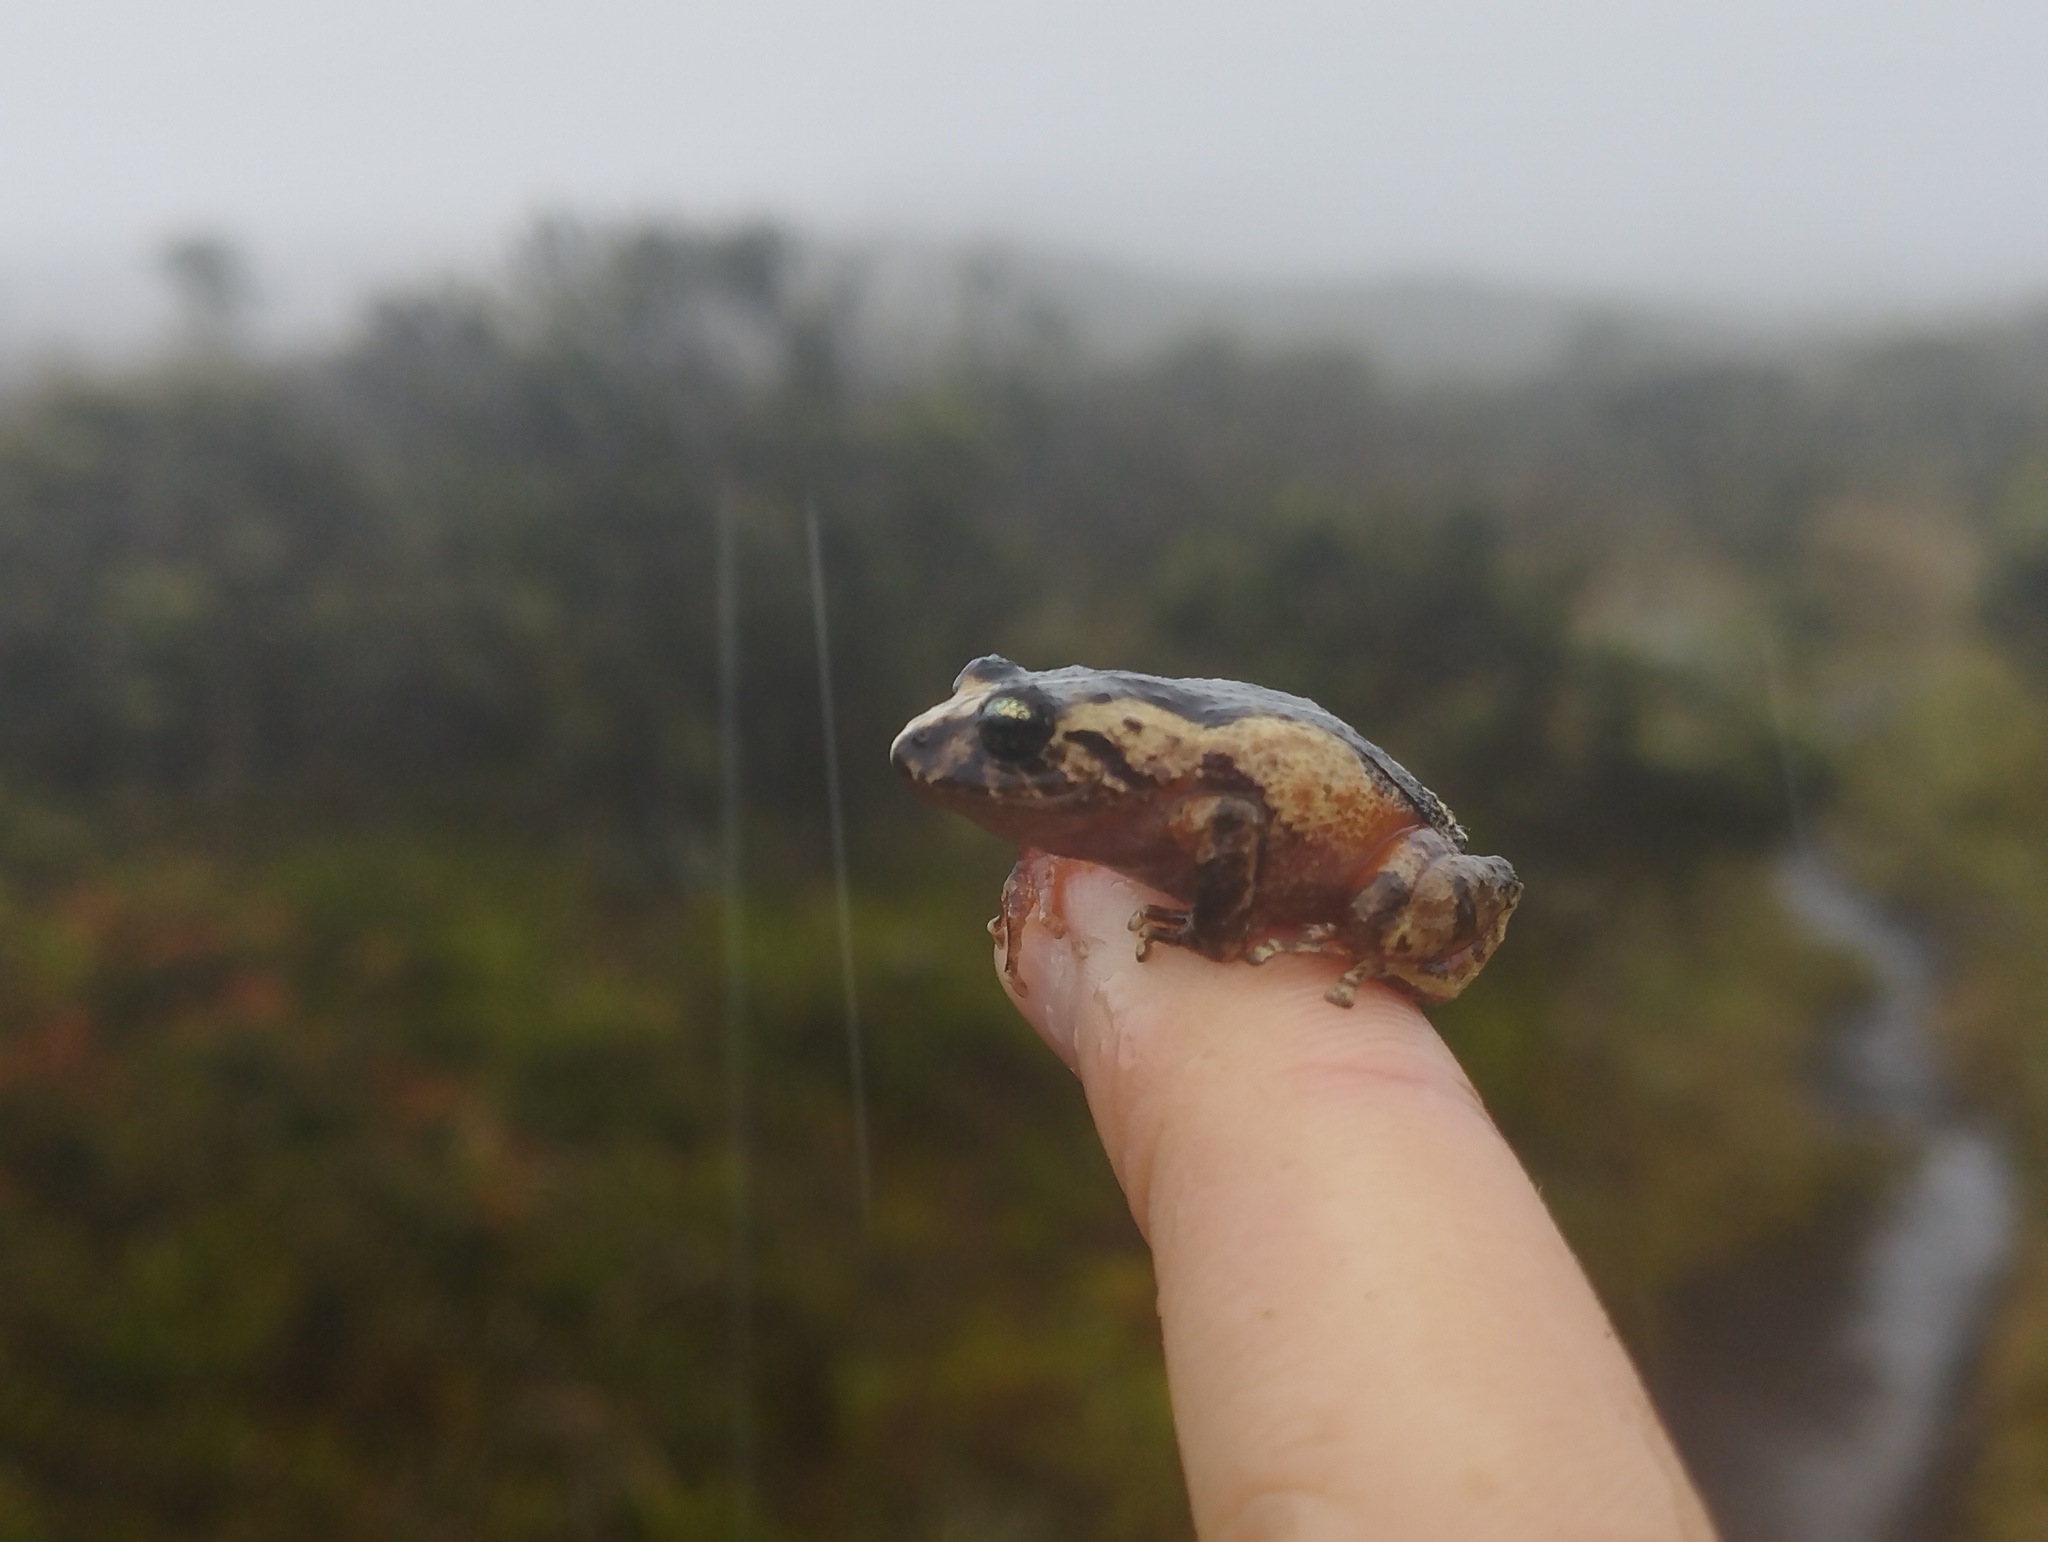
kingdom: Animalia
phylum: Chordata
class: Amphibia
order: Anura
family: Craugastoridae
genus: Pristimantis
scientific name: Pristimantis bogotensis
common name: Bogota robber frog
